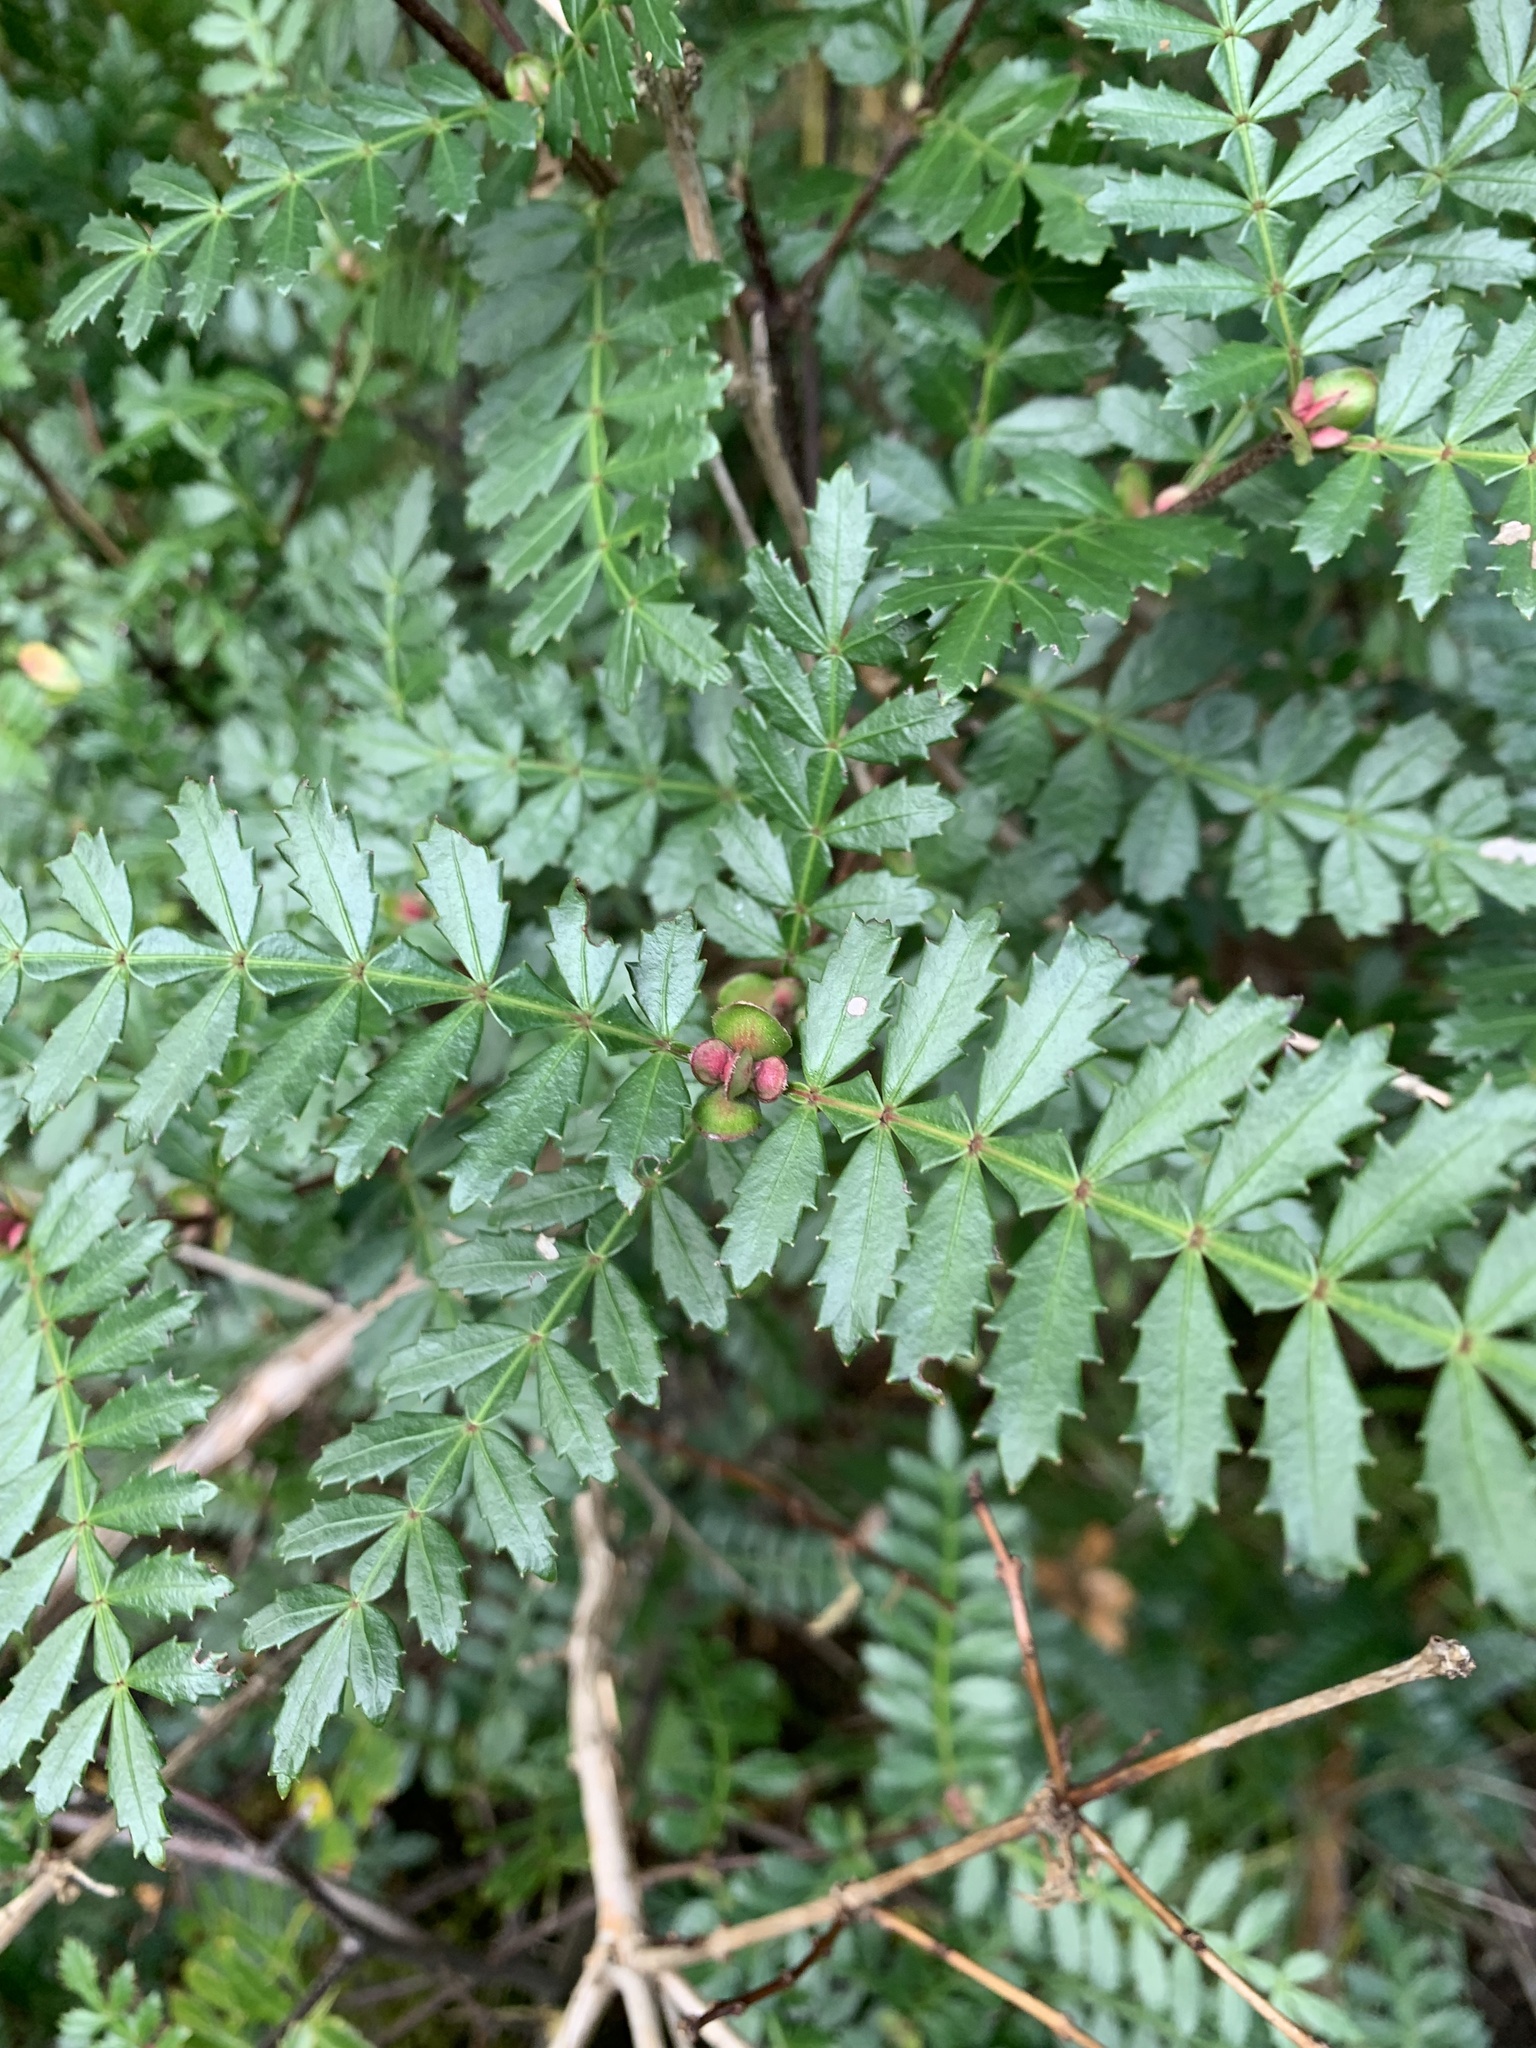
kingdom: Plantae
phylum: Tracheophyta
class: Magnoliopsida
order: Oxalidales
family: Cunoniaceae
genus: Weinmannia
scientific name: Weinmannia trichosperma
